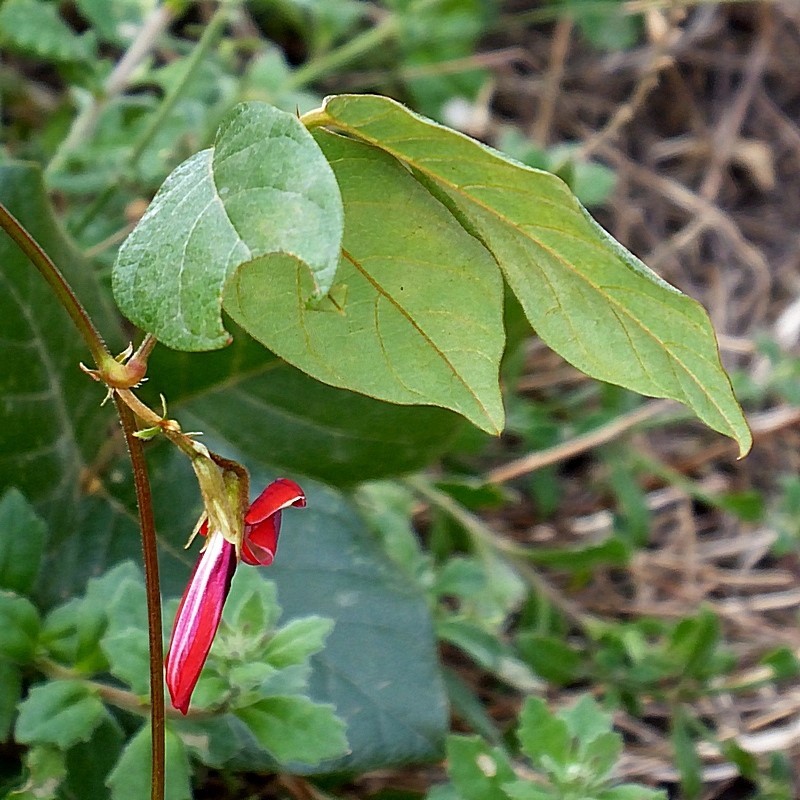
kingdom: Plantae
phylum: Tracheophyta
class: Magnoliopsida
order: Fabales
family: Fabaceae
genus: Kennedia
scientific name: Kennedia rubicunda
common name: Red kennedy-pea
